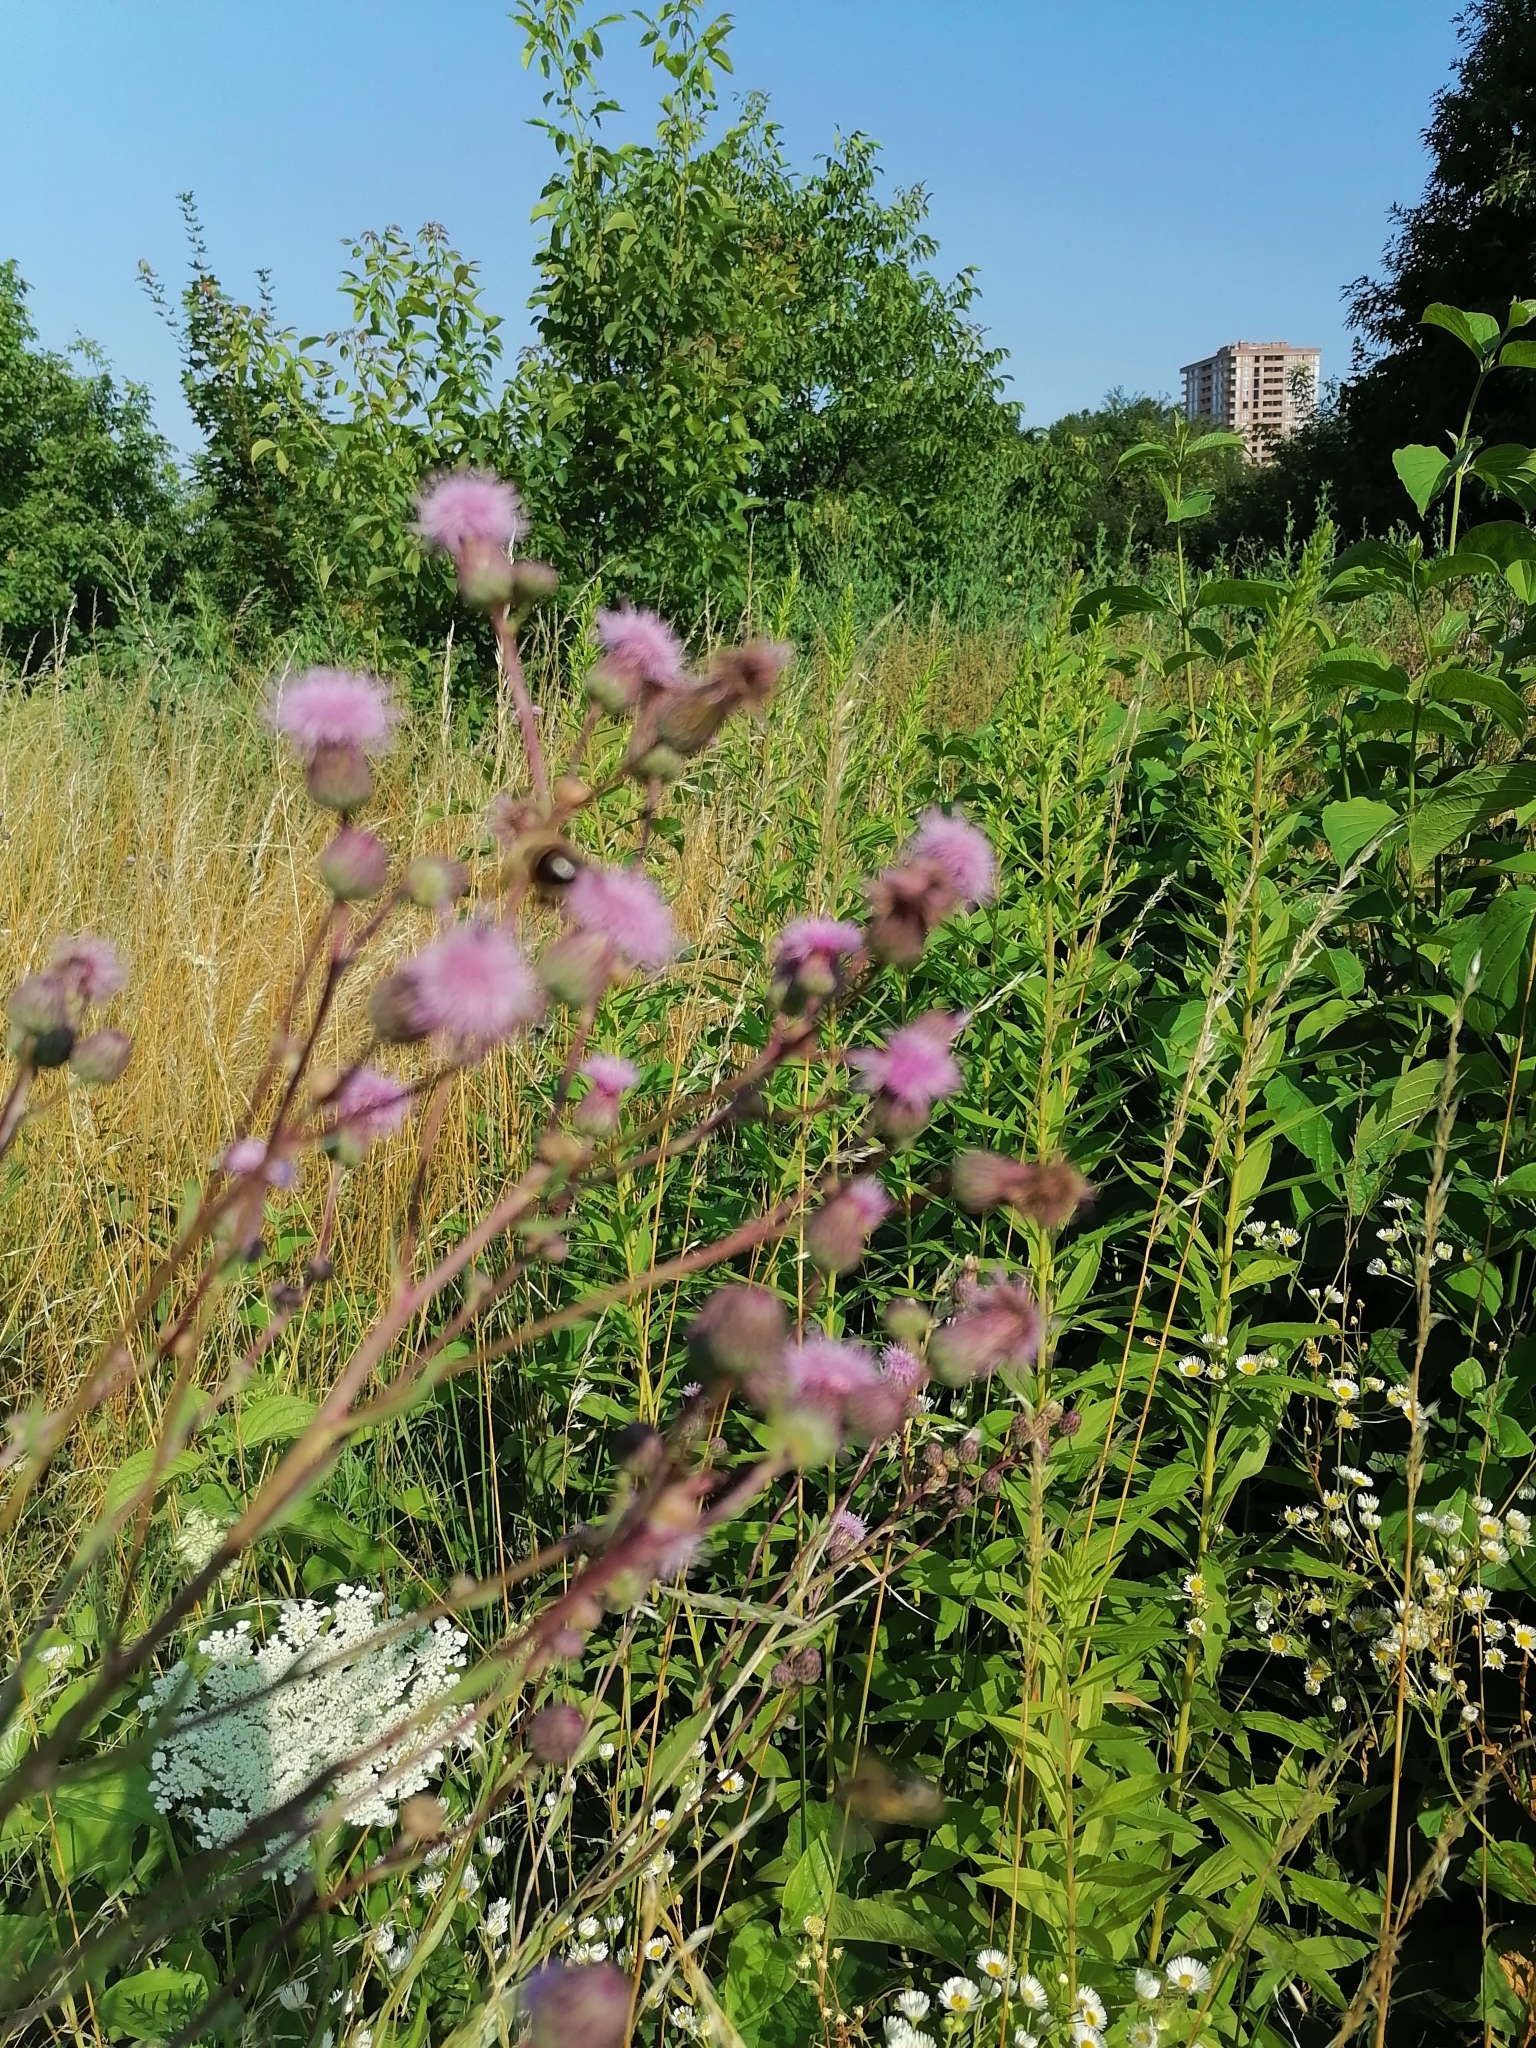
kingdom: Plantae
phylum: Tracheophyta
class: Magnoliopsida
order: Asterales
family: Asteraceae
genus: Cirsium
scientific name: Cirsium arvense
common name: Creeping thistle
